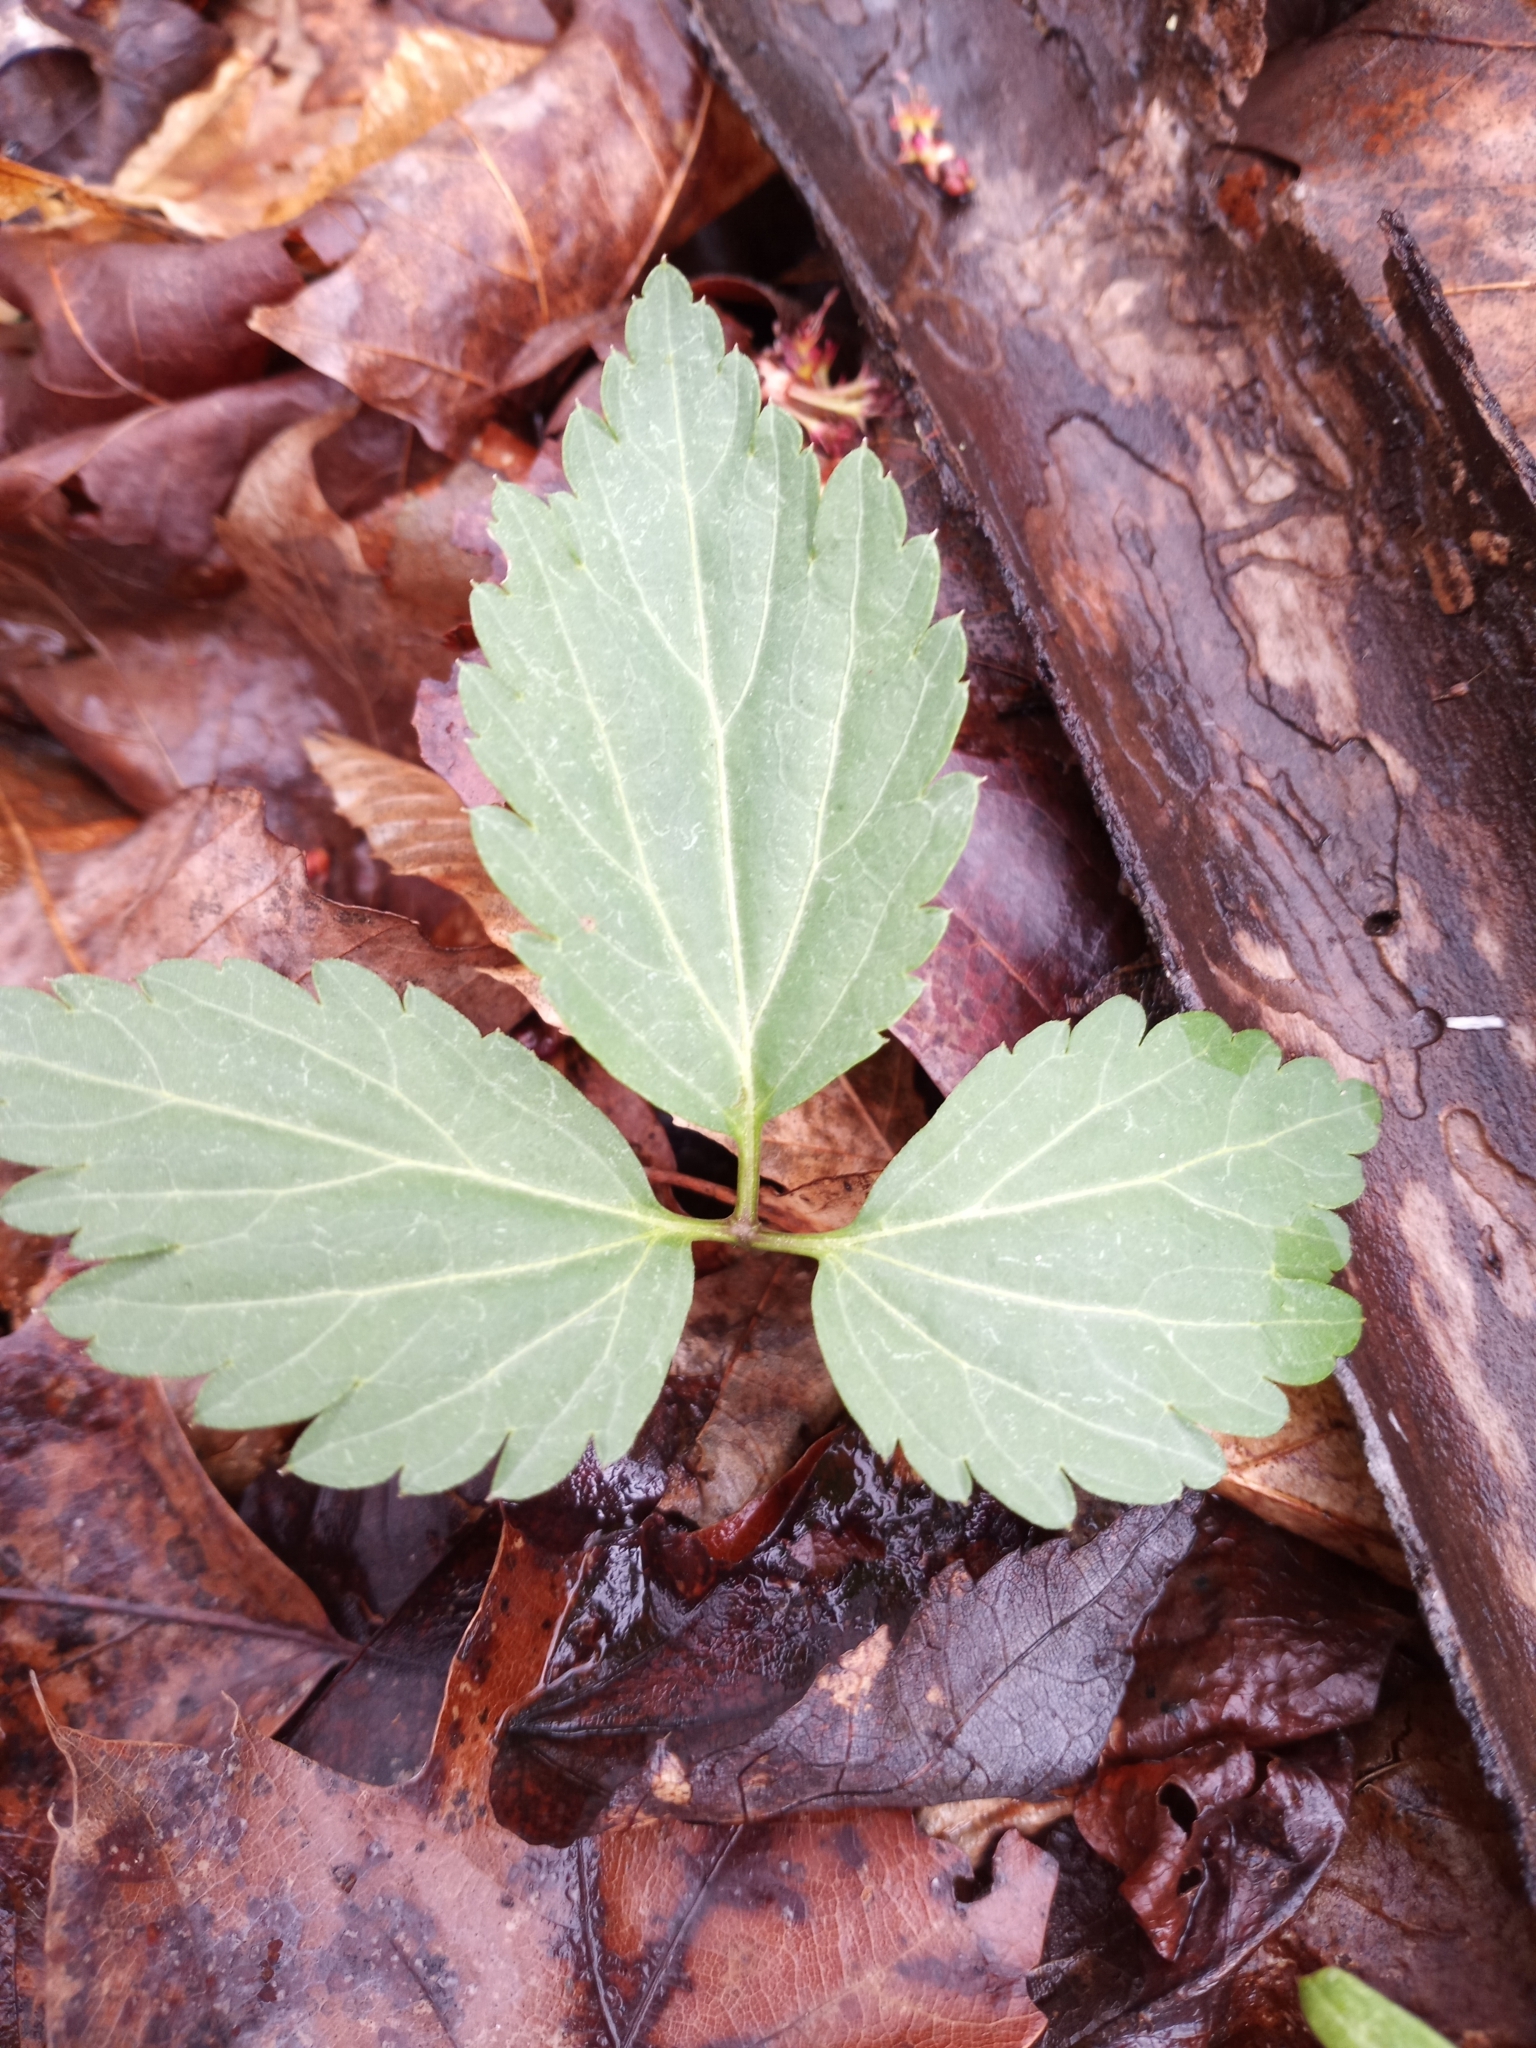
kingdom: Plantae
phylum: Tracheophyta
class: Magnoliopsida
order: Brassicales
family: Brassicaceae
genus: Cardamine
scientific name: Cardamine diphylla
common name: Broad-leaved toothwort
